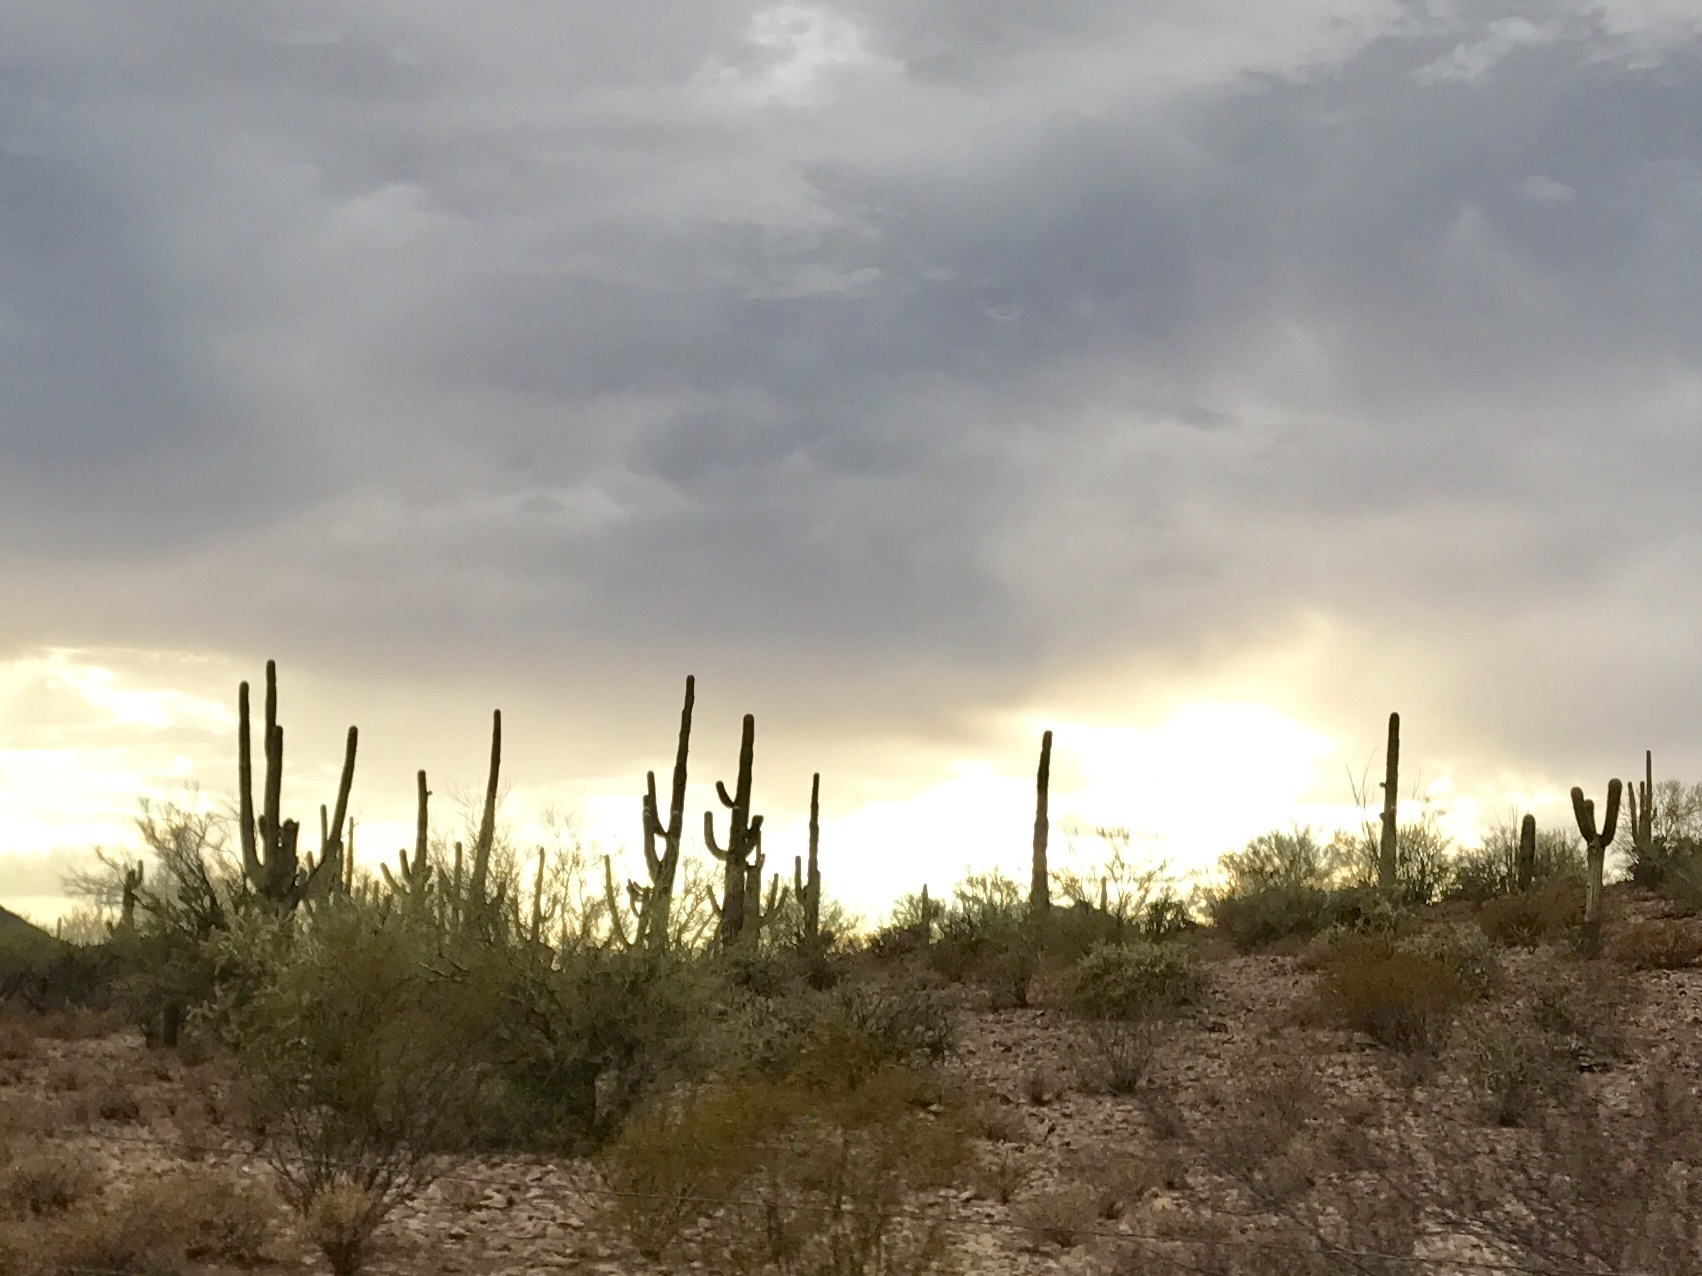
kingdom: Plantae
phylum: Tracheophyta
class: Magnoliopsida
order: Caryophyllales
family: Cactaceae
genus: Carnegiea
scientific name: Carnegiea gigantea
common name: Saguaro
